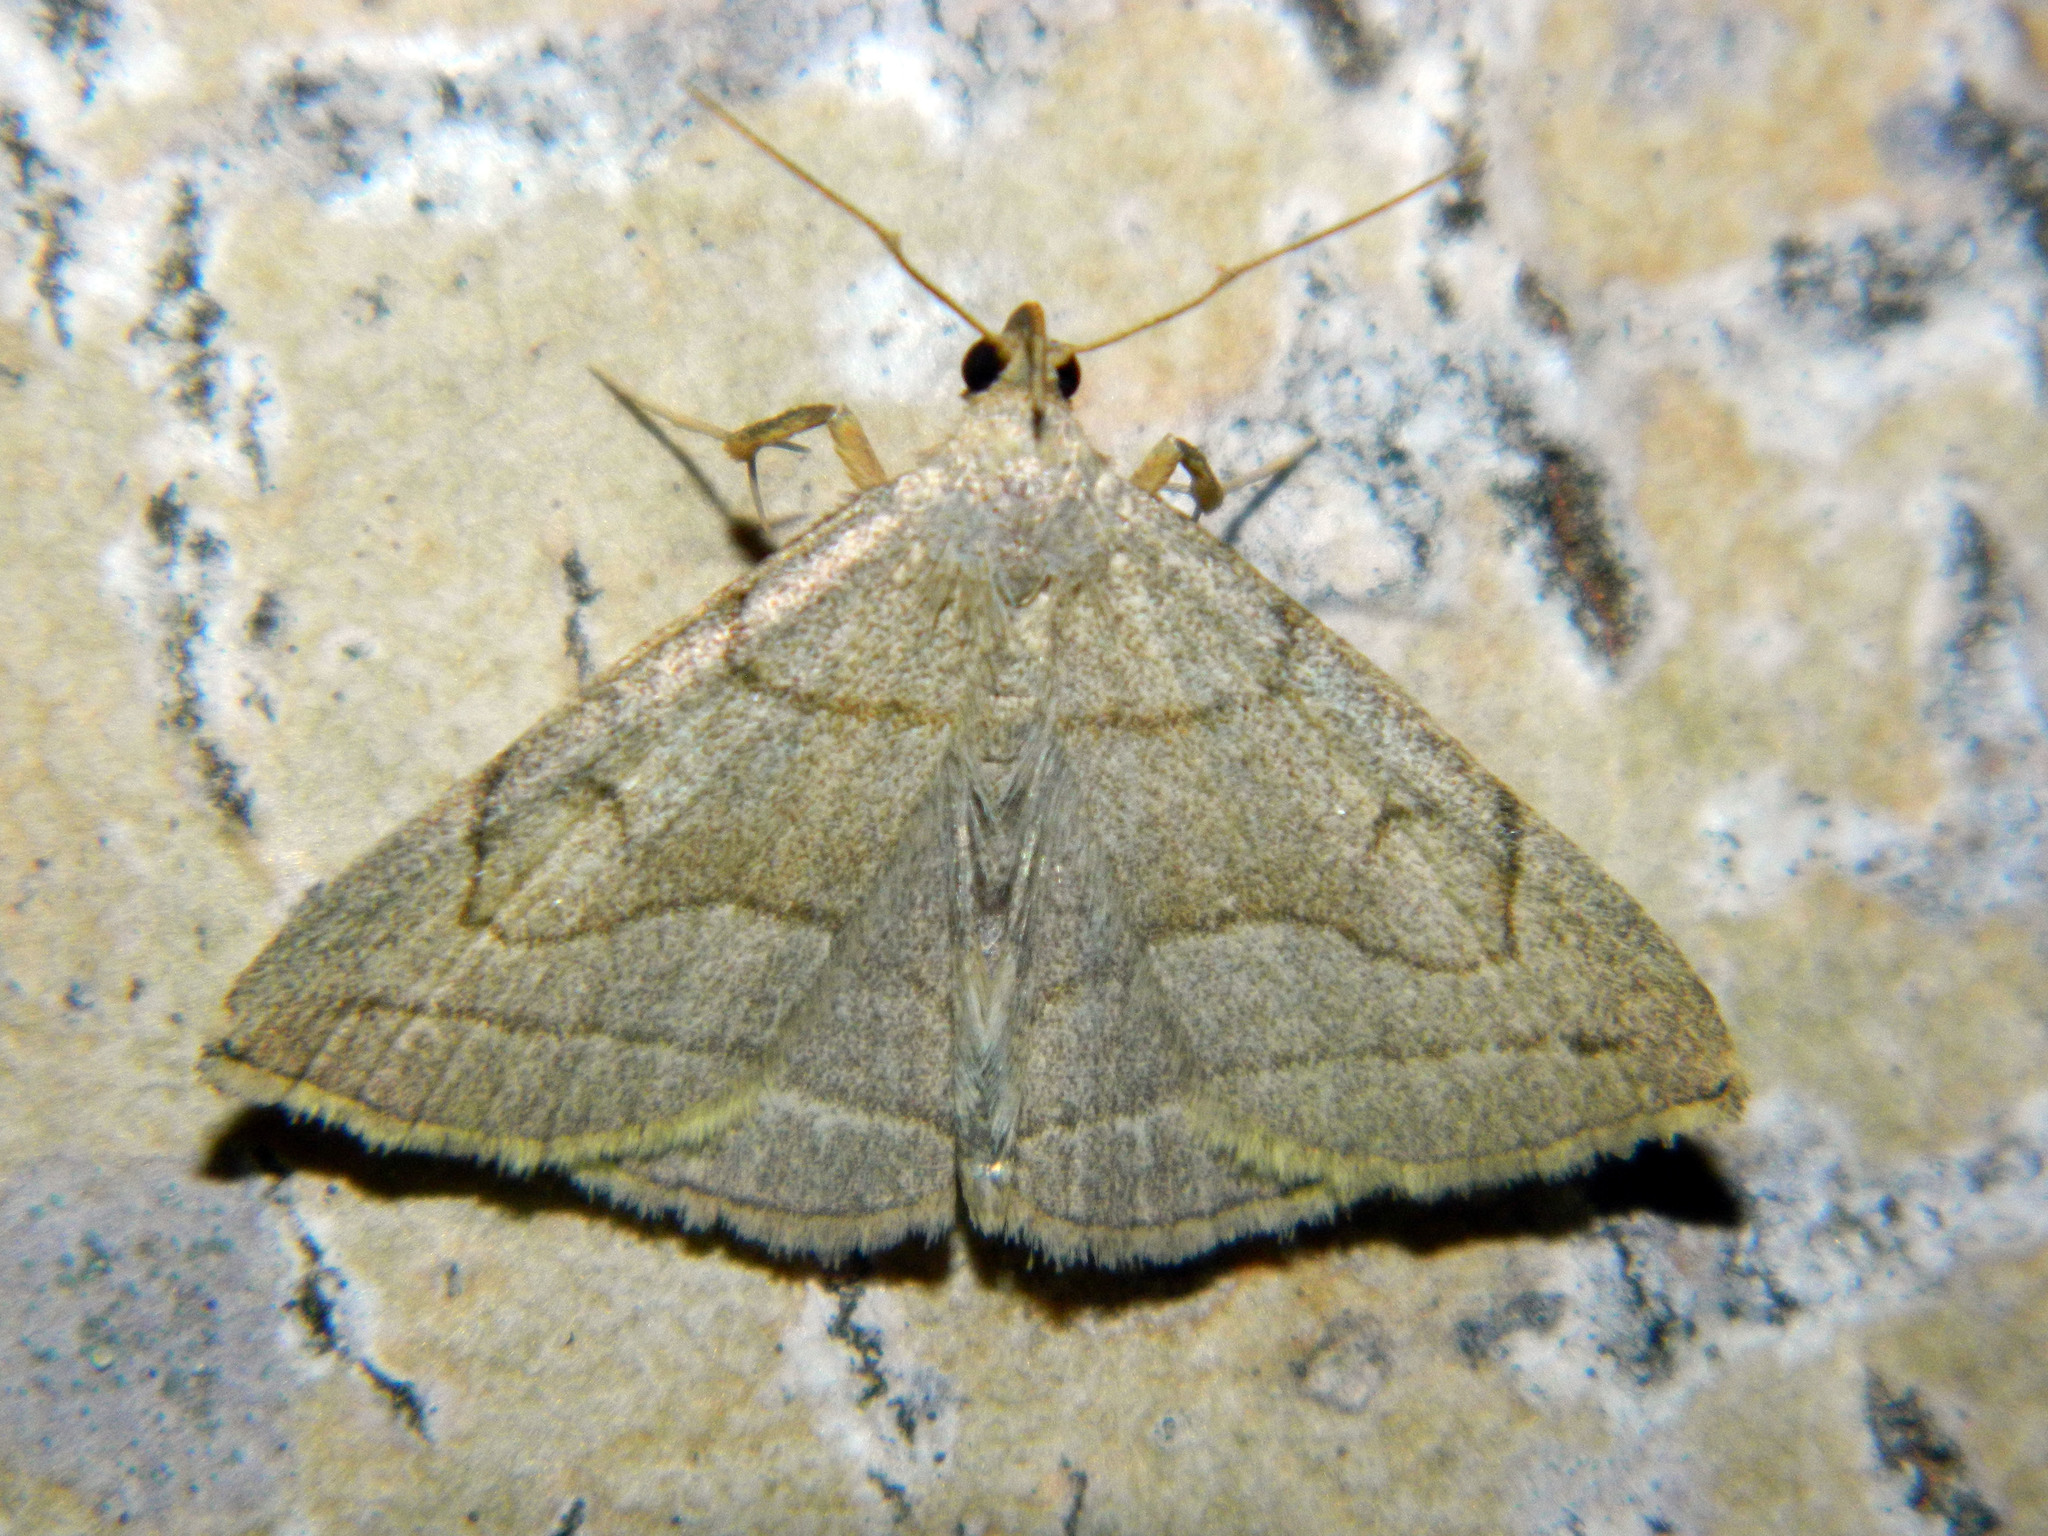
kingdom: Animalia
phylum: Arthropoda
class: Insecta
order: Lepidoptera
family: Erebidae
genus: Zanclognatha
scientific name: Zanclognatha pedipilalis
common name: Grayish fan-foot
